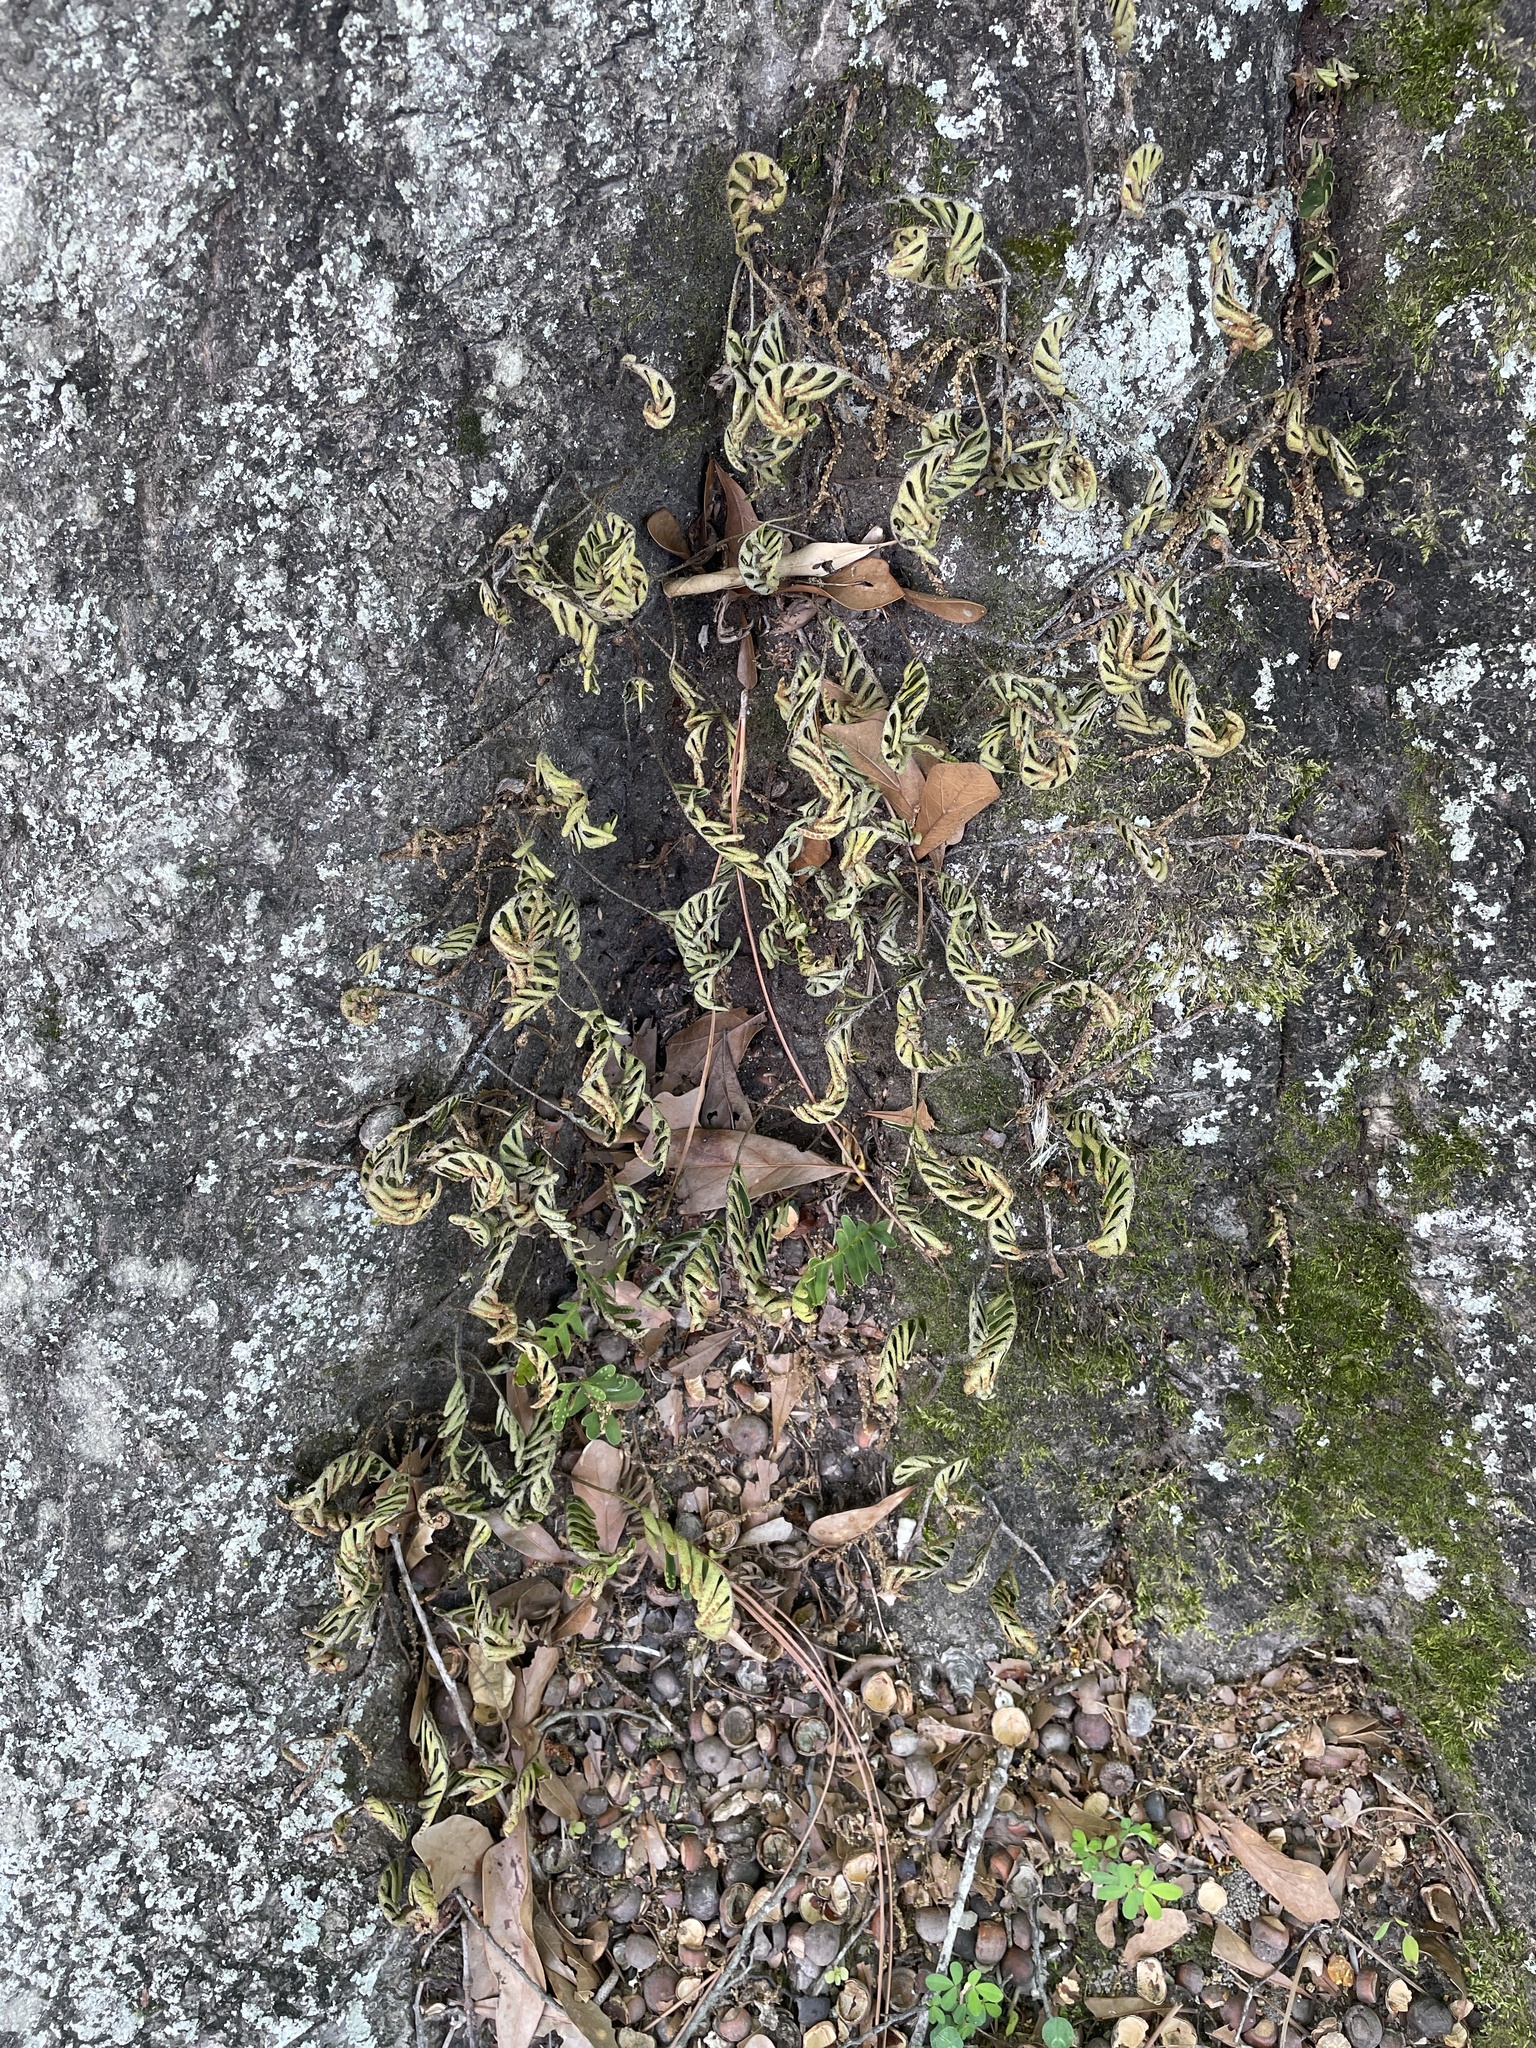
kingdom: Plantae
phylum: Tracheophyta
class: Polypodiopsida
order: Polypodiales
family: Polypodiaceae
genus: Pleopeltis
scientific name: Pleopeltis michauxiana
